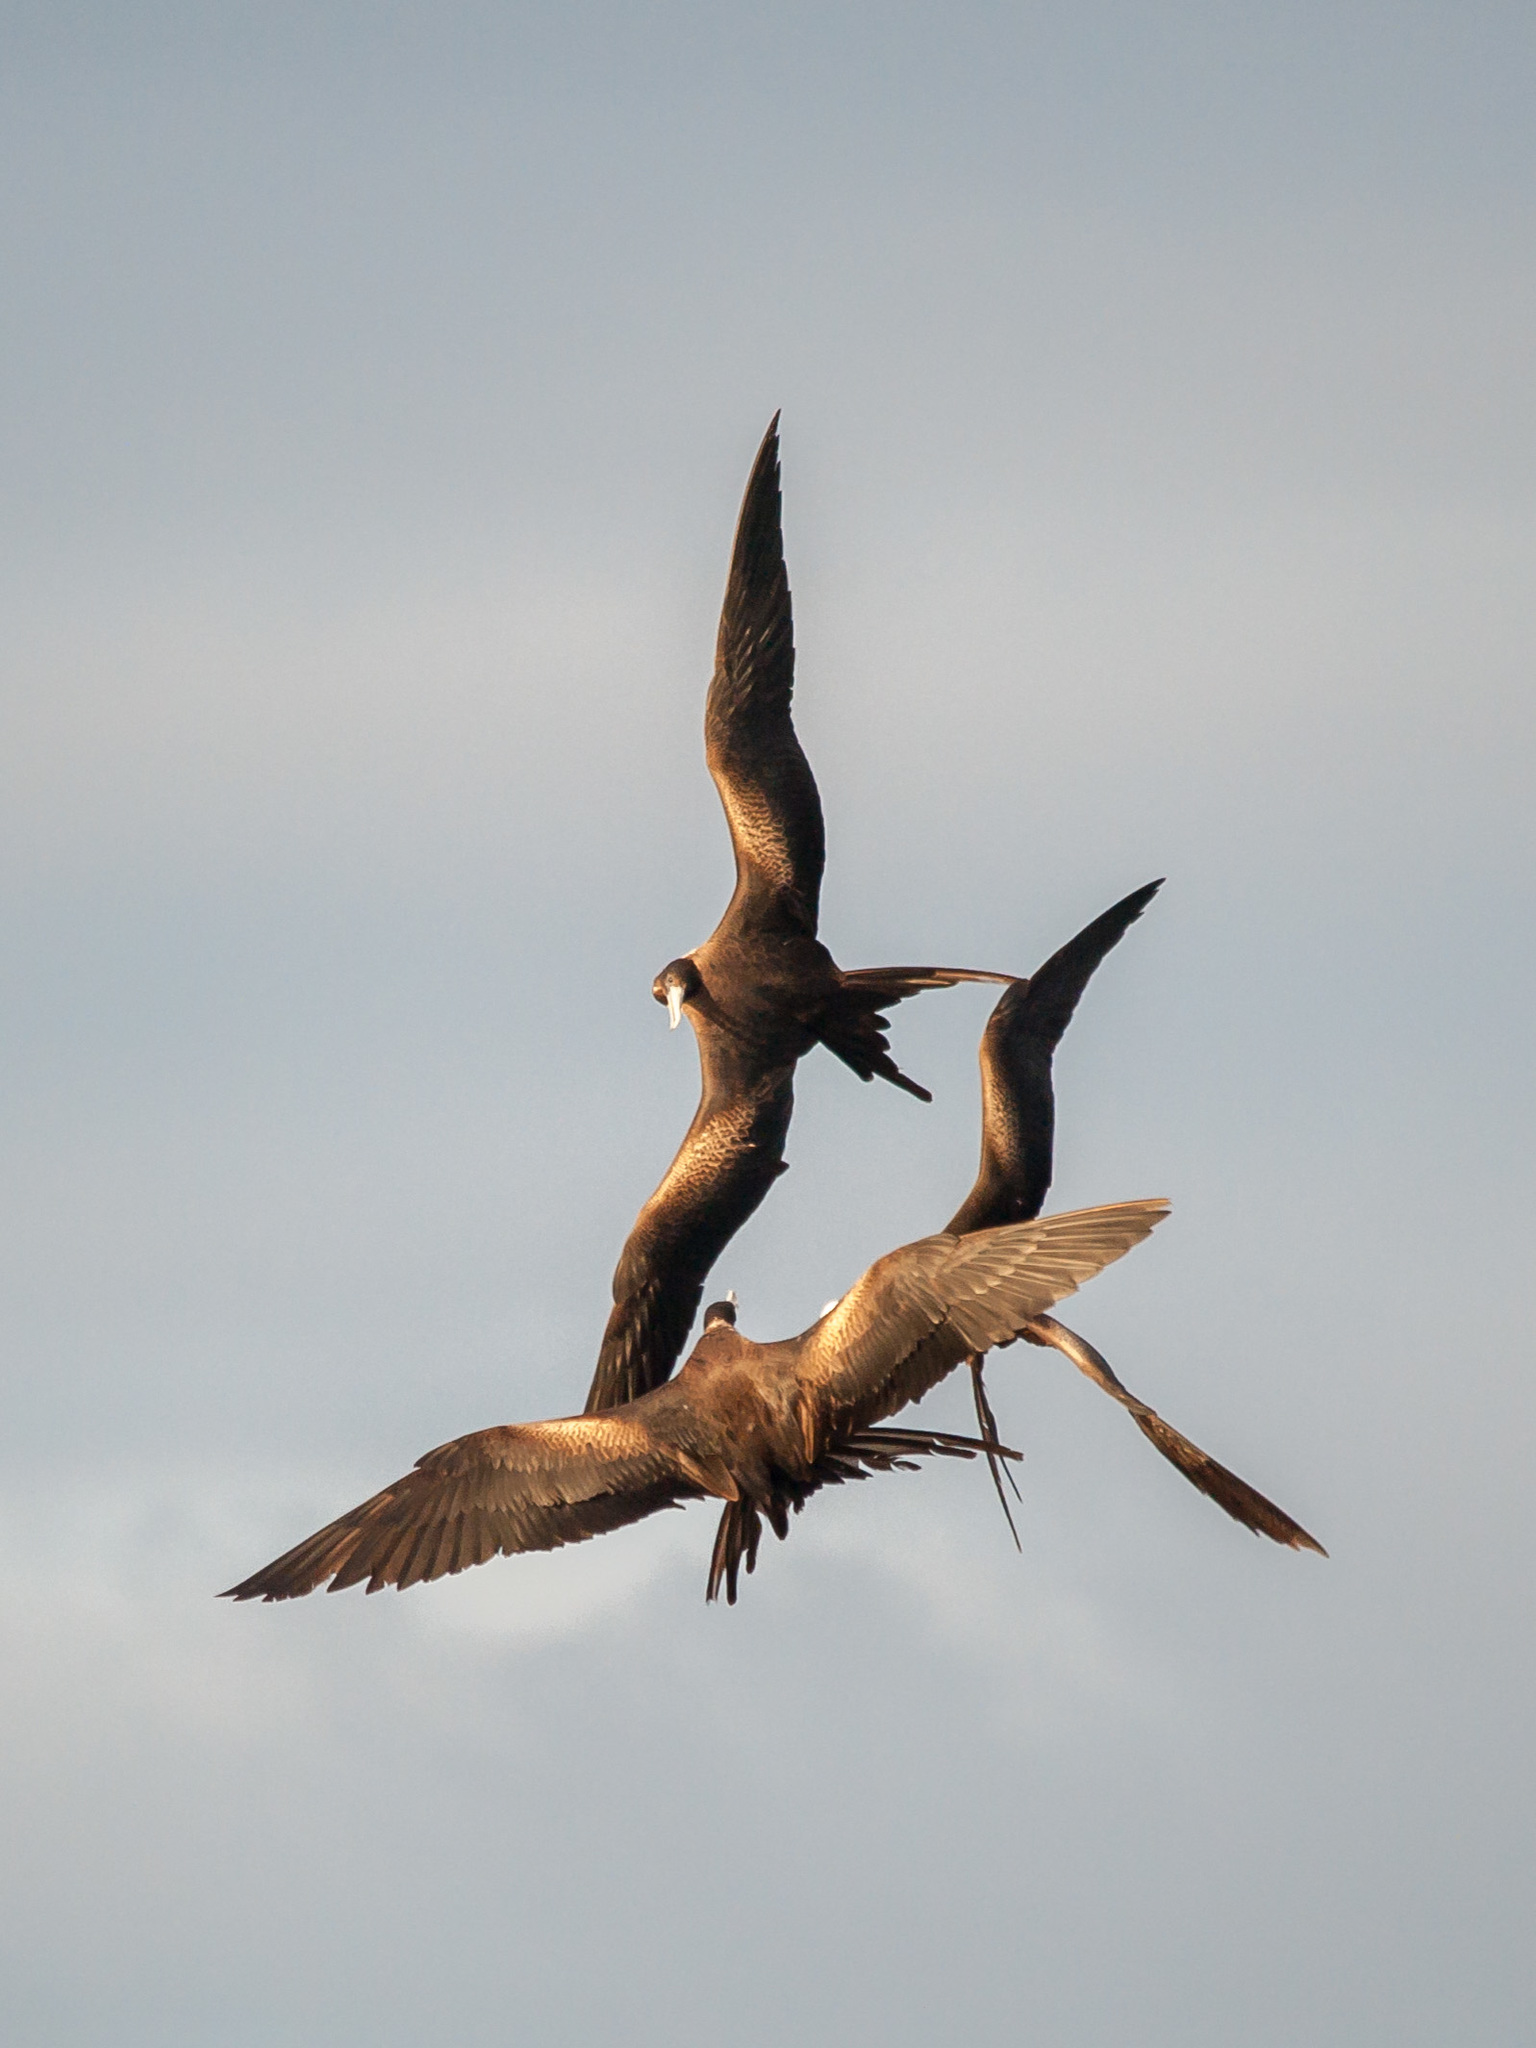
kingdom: Animalia
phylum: Chordata
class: Aves
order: Suliformes
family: Fregatidae
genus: Fregata
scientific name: Fregata magnificens
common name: Magnificent frigatebird
